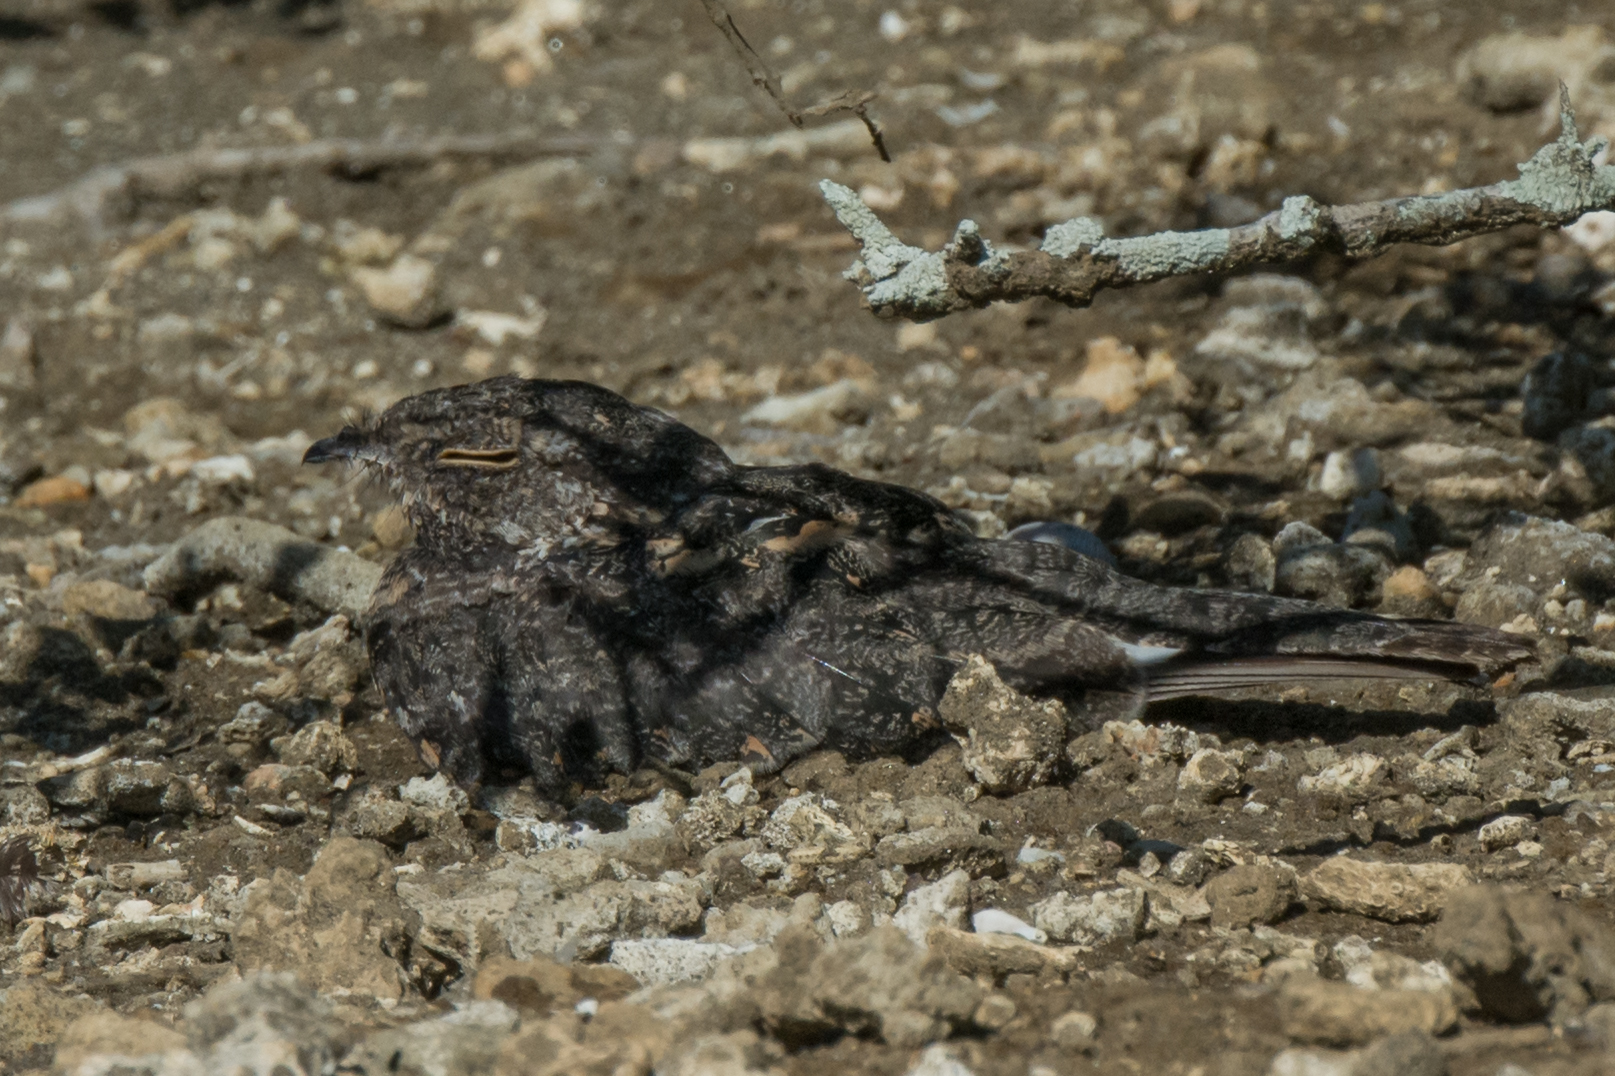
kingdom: Animalia
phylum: Chordata
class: Aves
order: Caprimulgiformes
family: Caprimulgidae
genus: Caprimulgus
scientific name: Caprimulgus affinis
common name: Savanna nightjar
